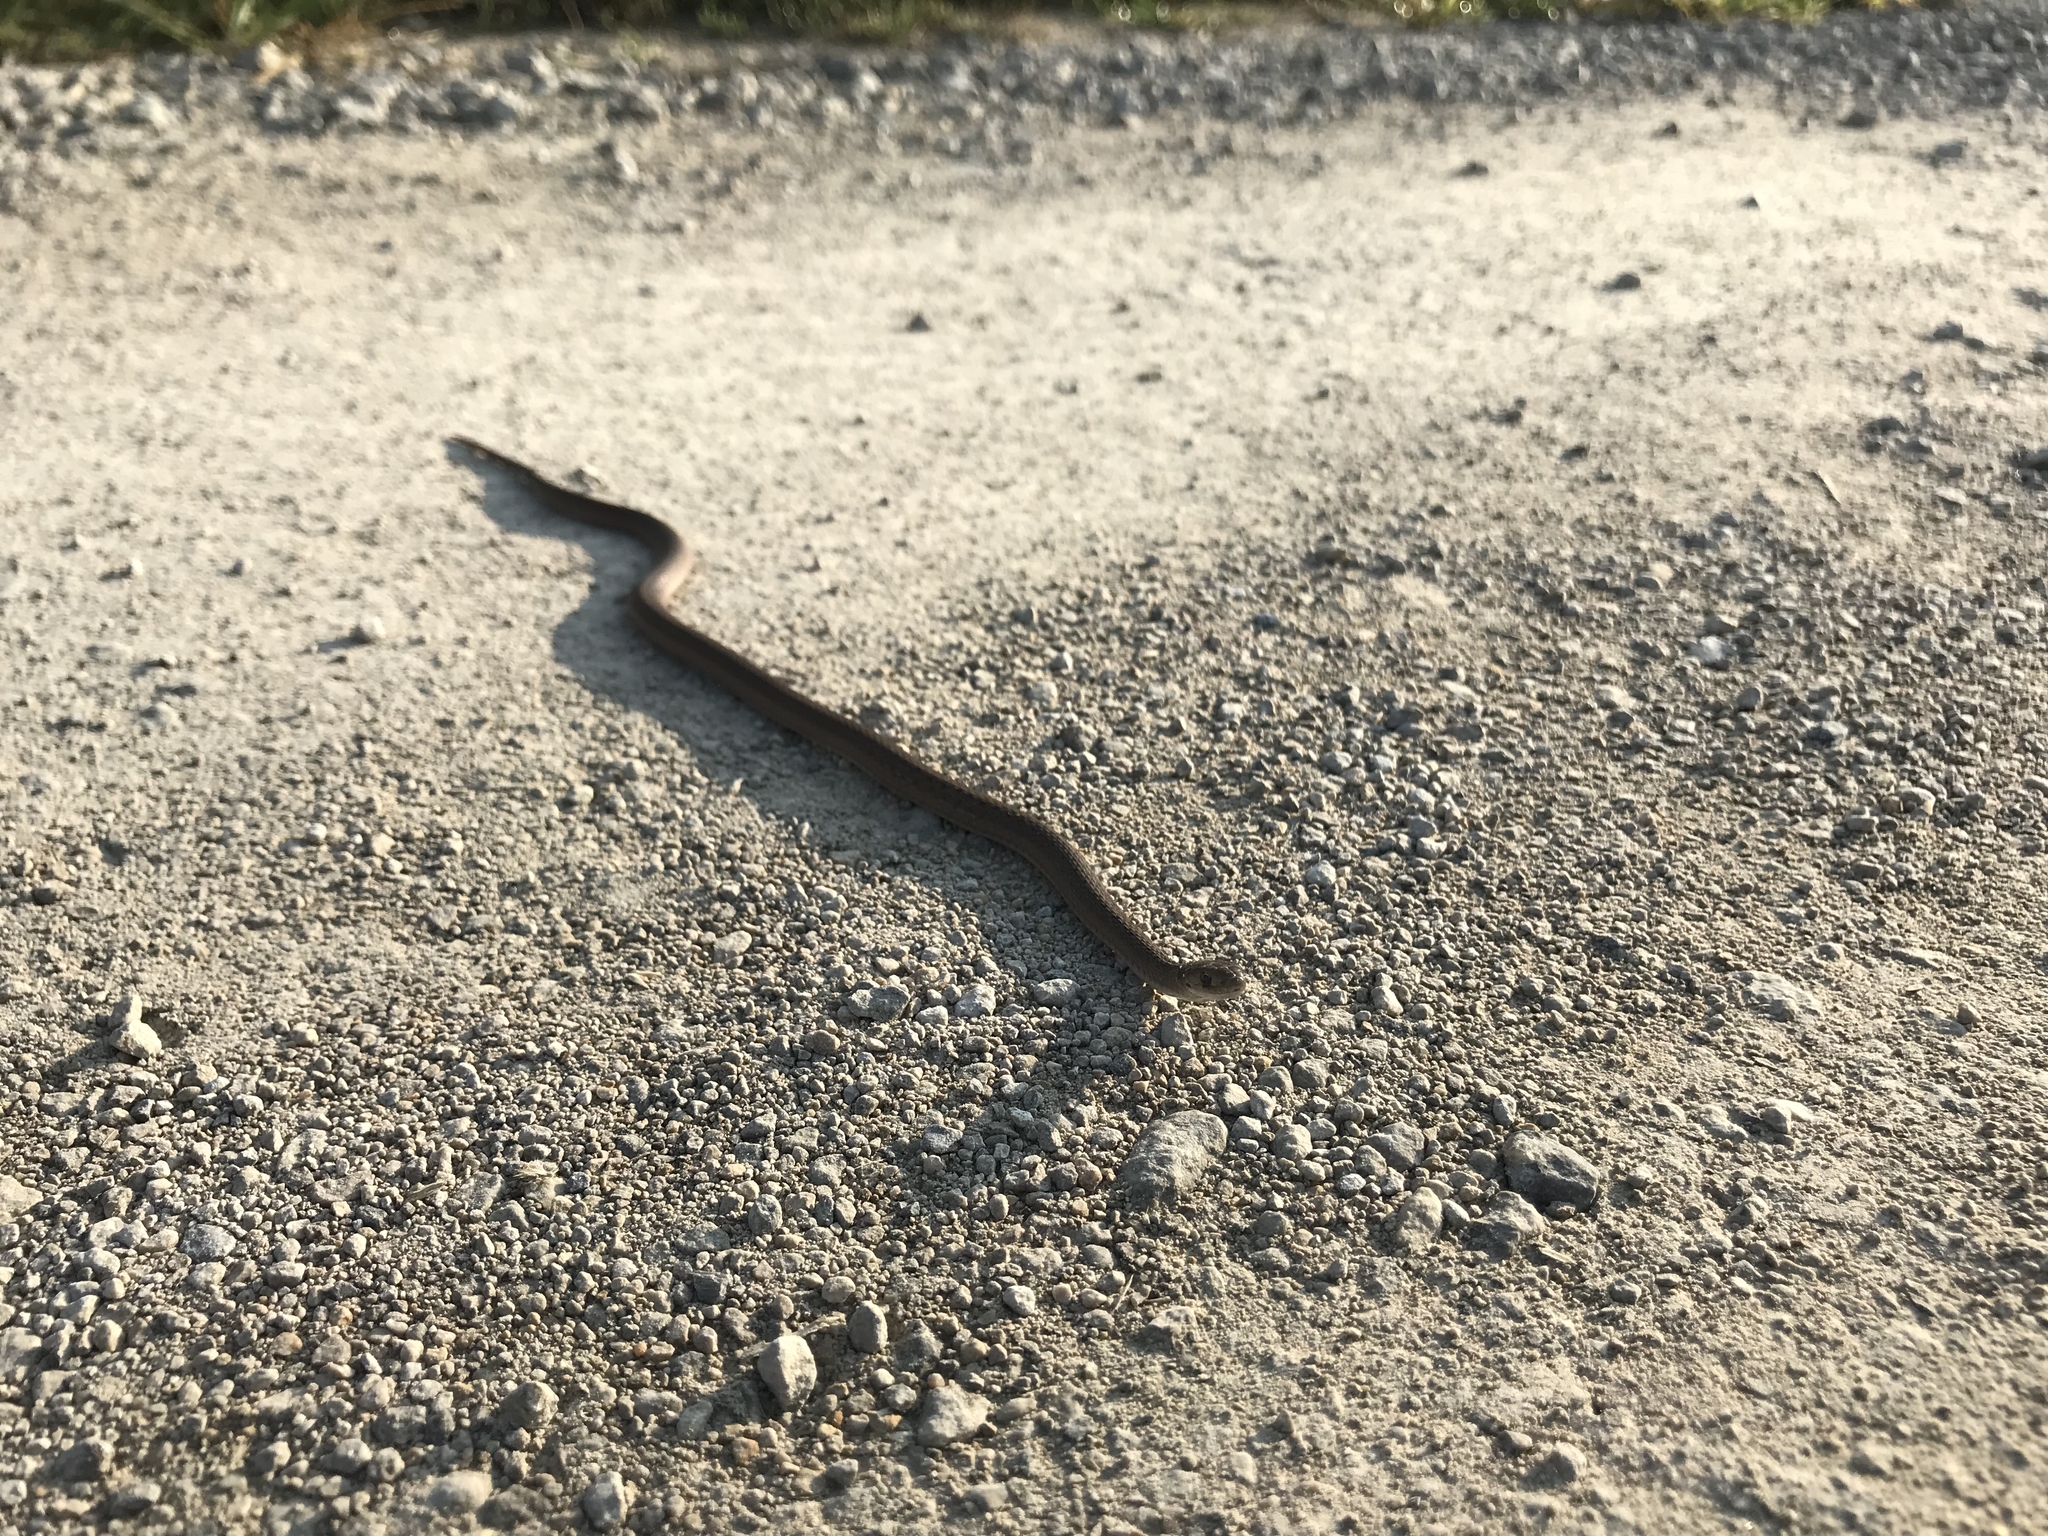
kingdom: Animalia
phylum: Chordata
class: Squamata
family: Colubridae
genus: Storeria
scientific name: Storeria dekayi
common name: (dekay’s) brown snake
